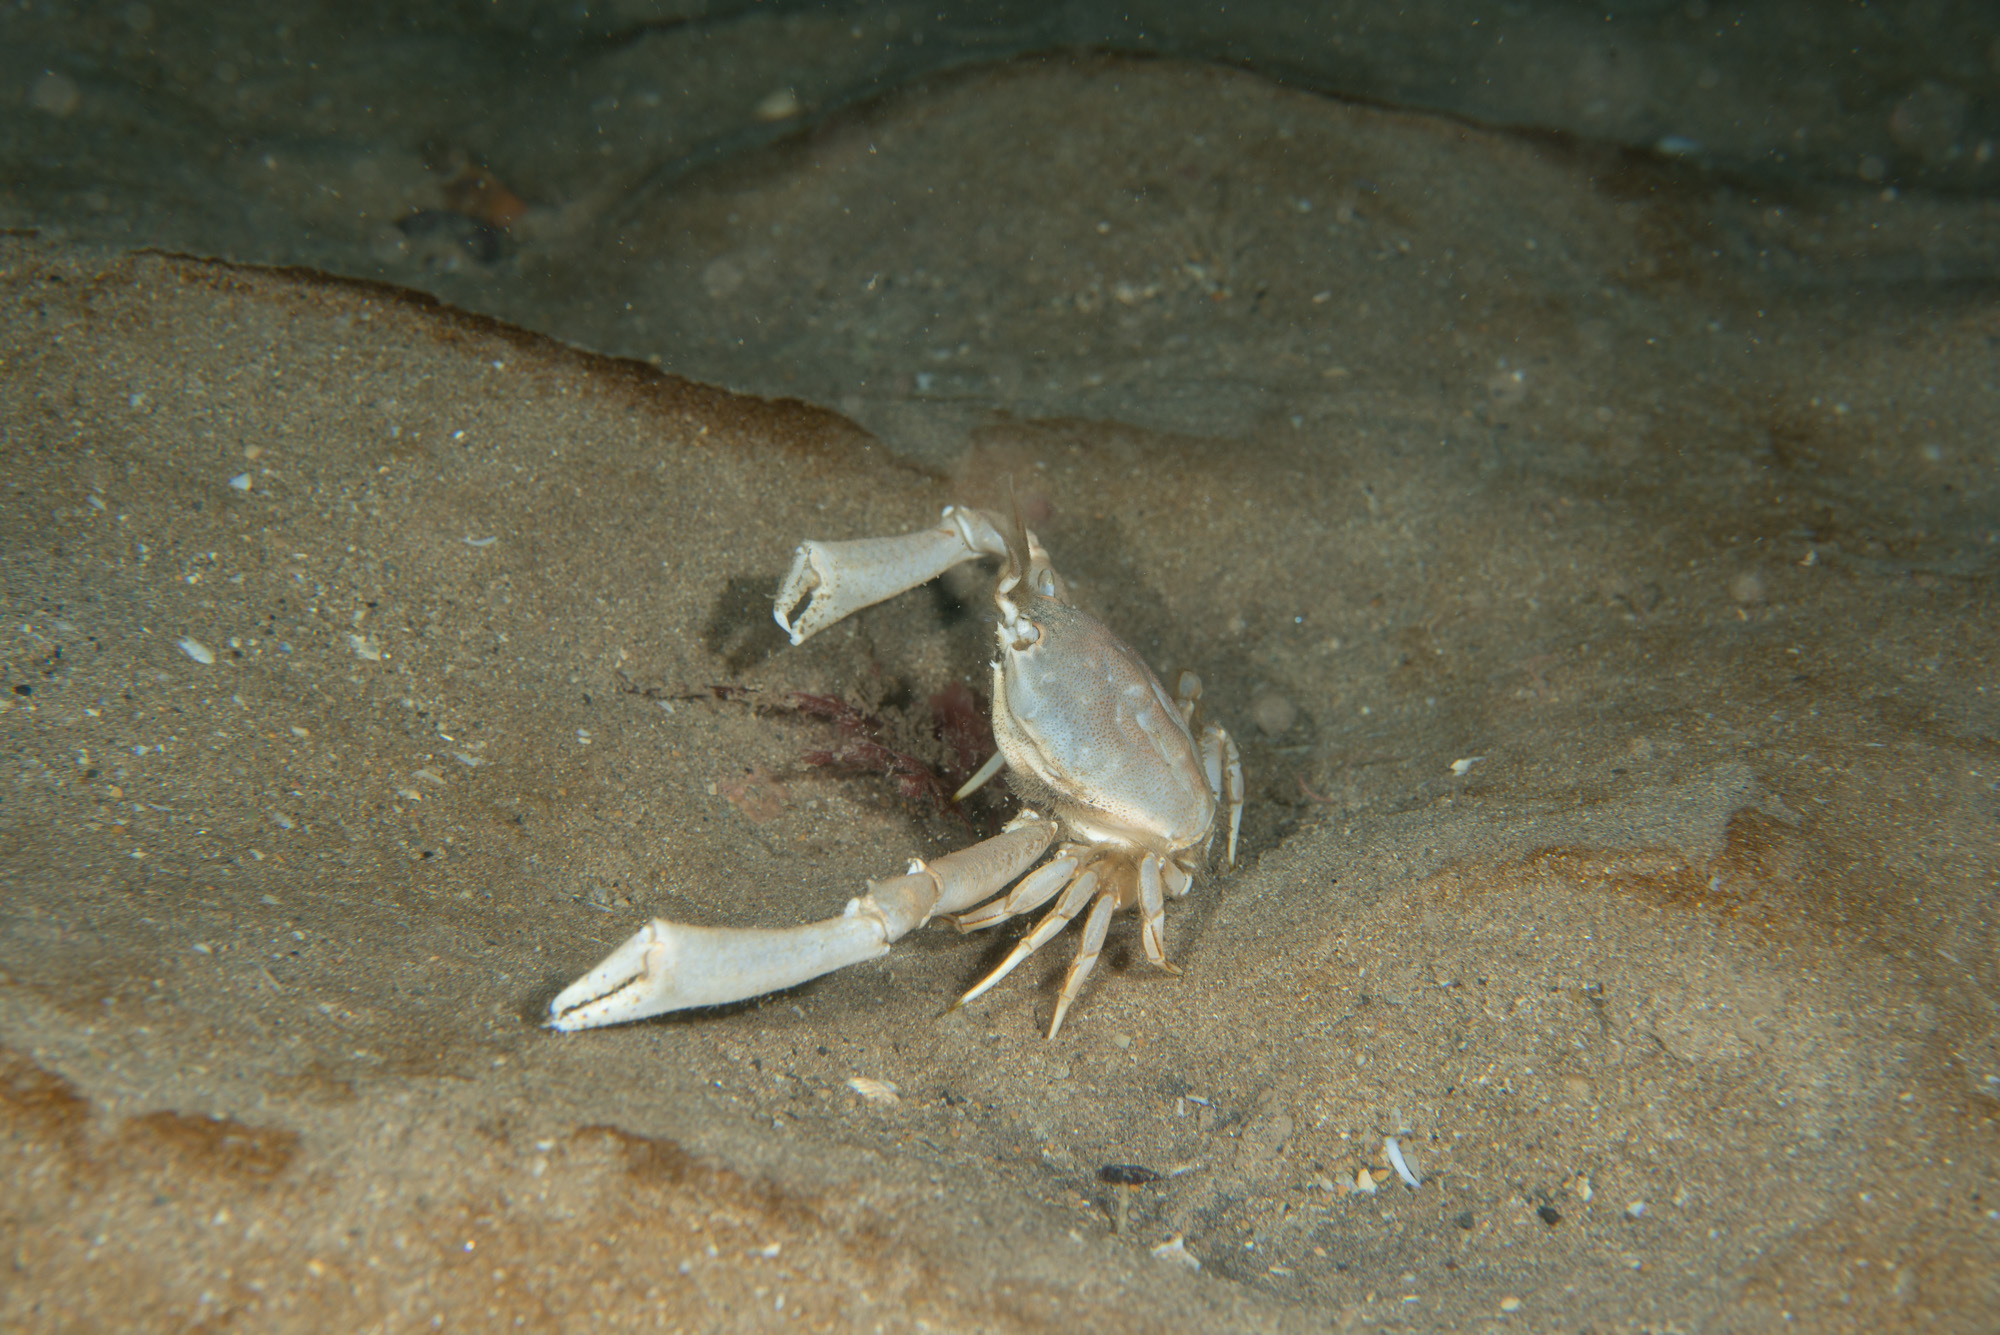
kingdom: Animalia
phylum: Arthropoda
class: Malacostraca
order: Decapoda
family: Corystidae
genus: Corystes
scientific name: Corystes cassivelaunus
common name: Masked crab
